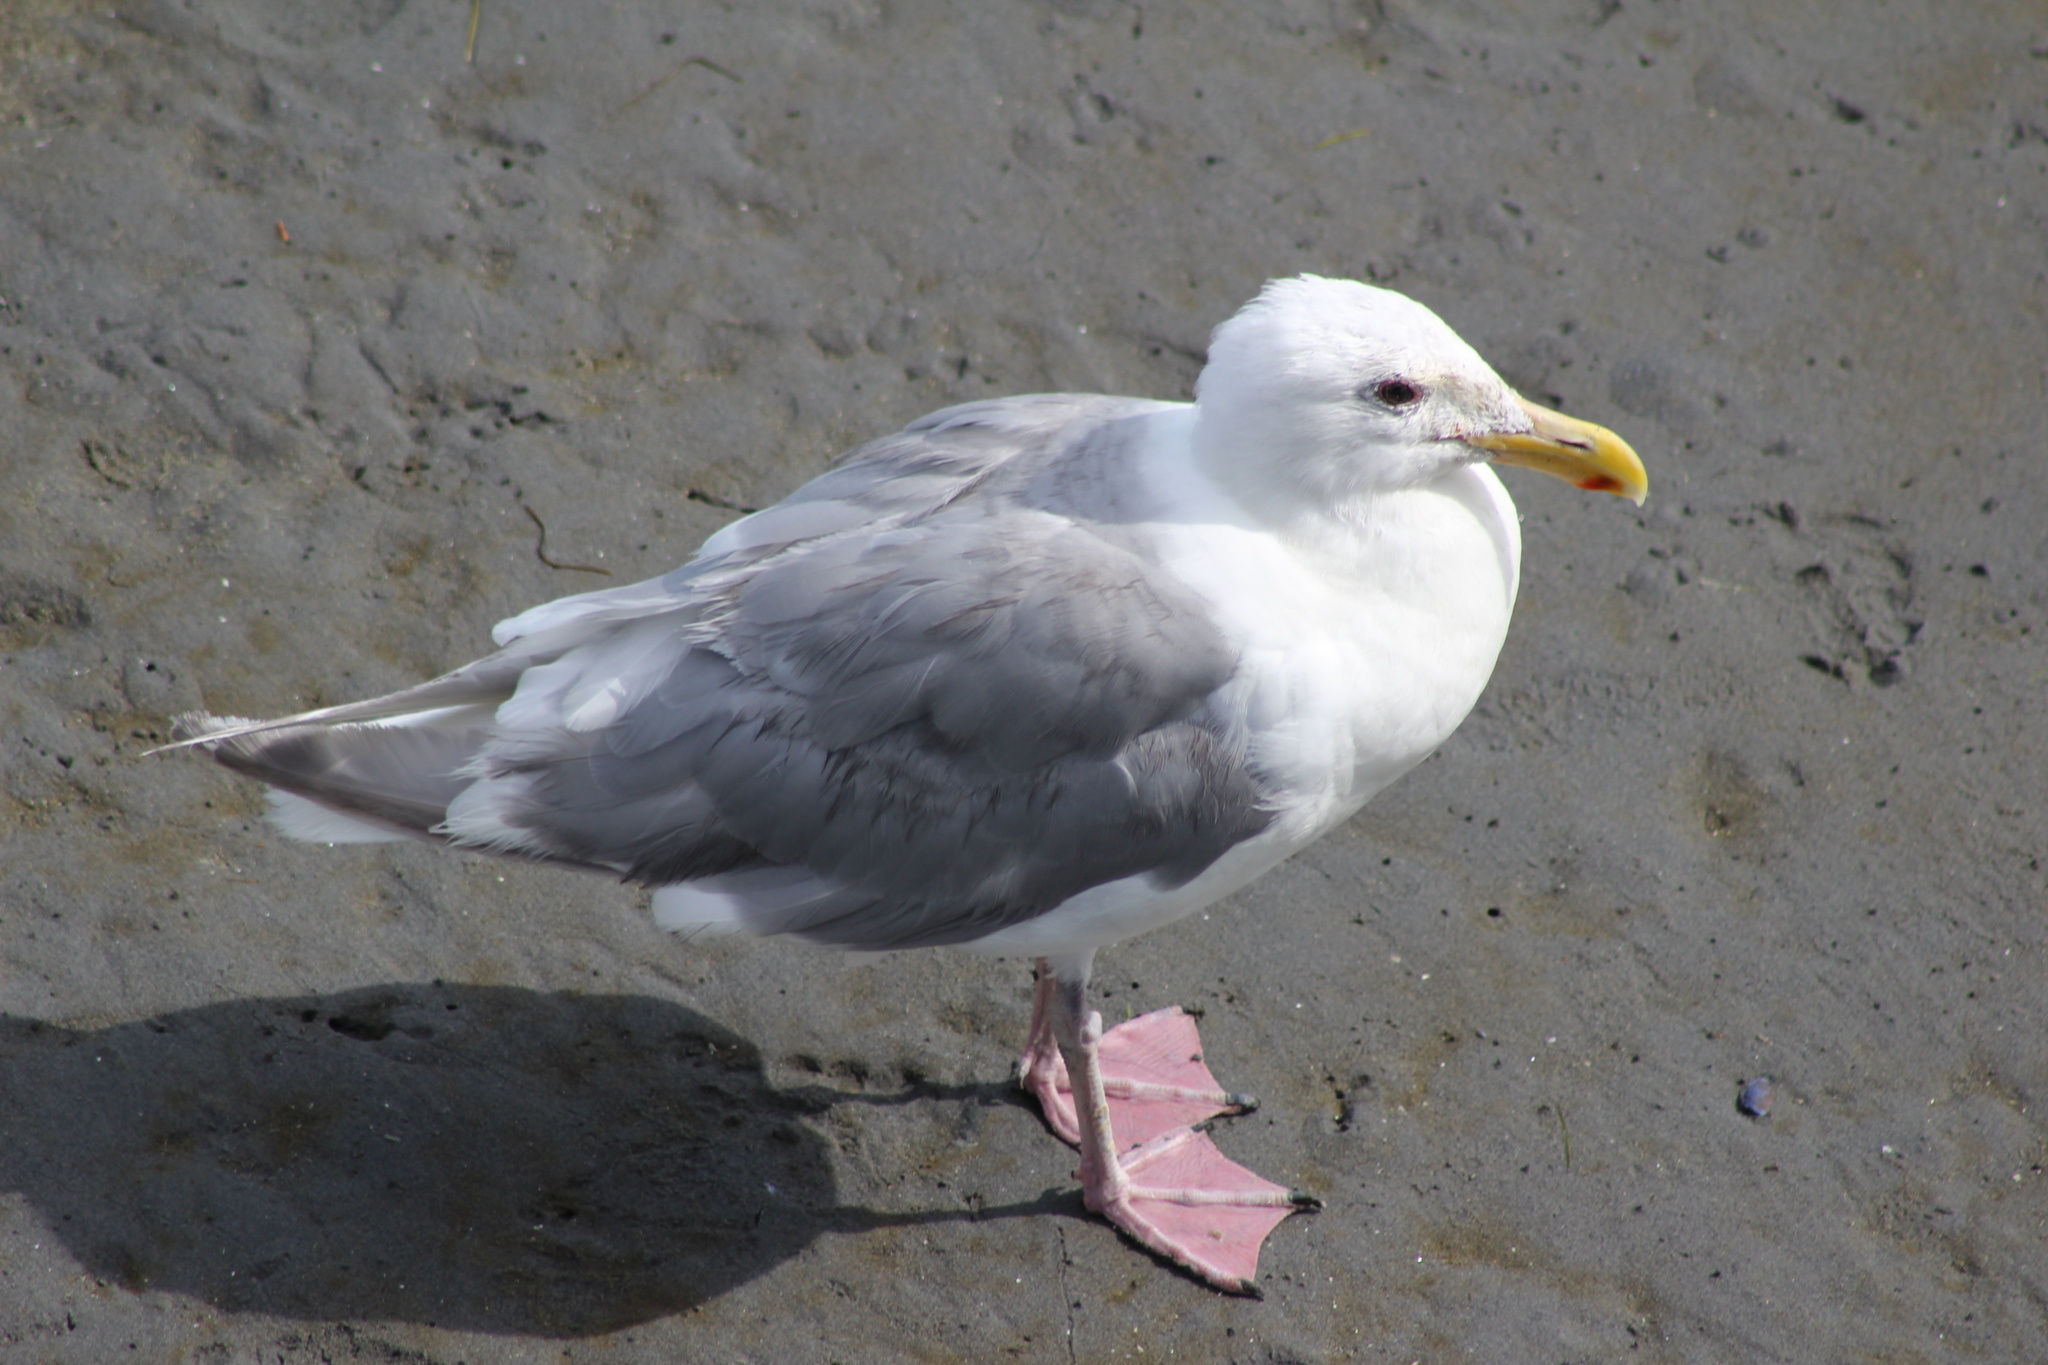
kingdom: Animalia
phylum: Chordata
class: Aves
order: Charadriiformes
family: Laridae
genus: Larus
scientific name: Larus
